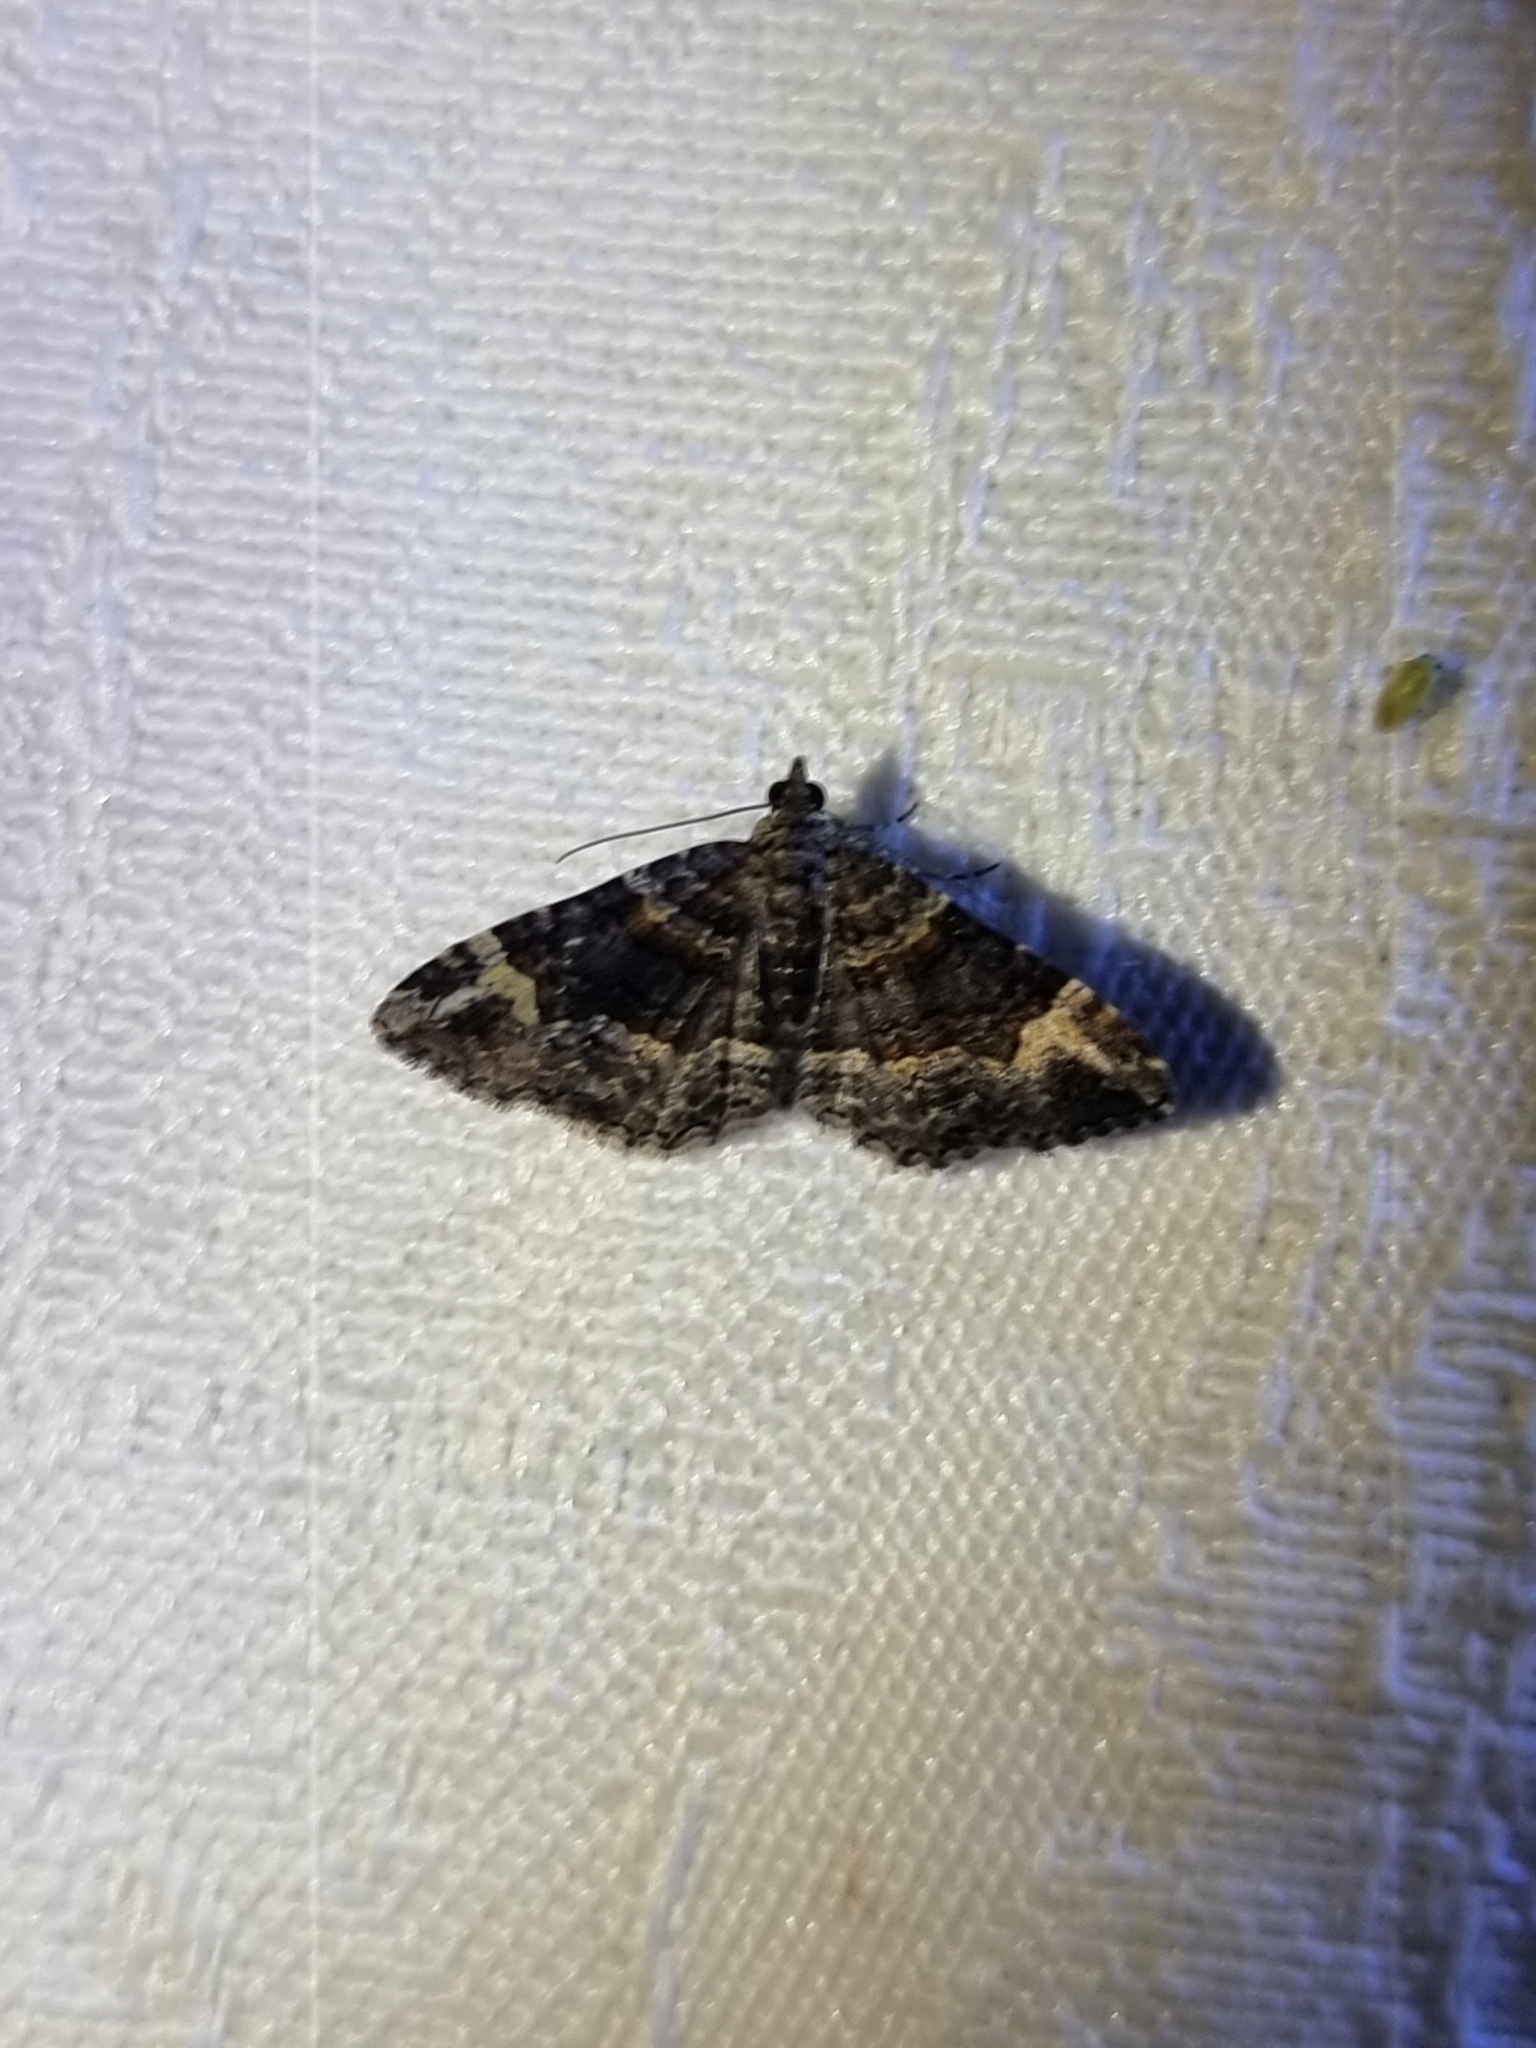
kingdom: Animalia
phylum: Arthropoda
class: Insecta
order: Lepidoptera
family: Geometridae
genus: Epyaxa
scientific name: Epyaxa sodaliata
